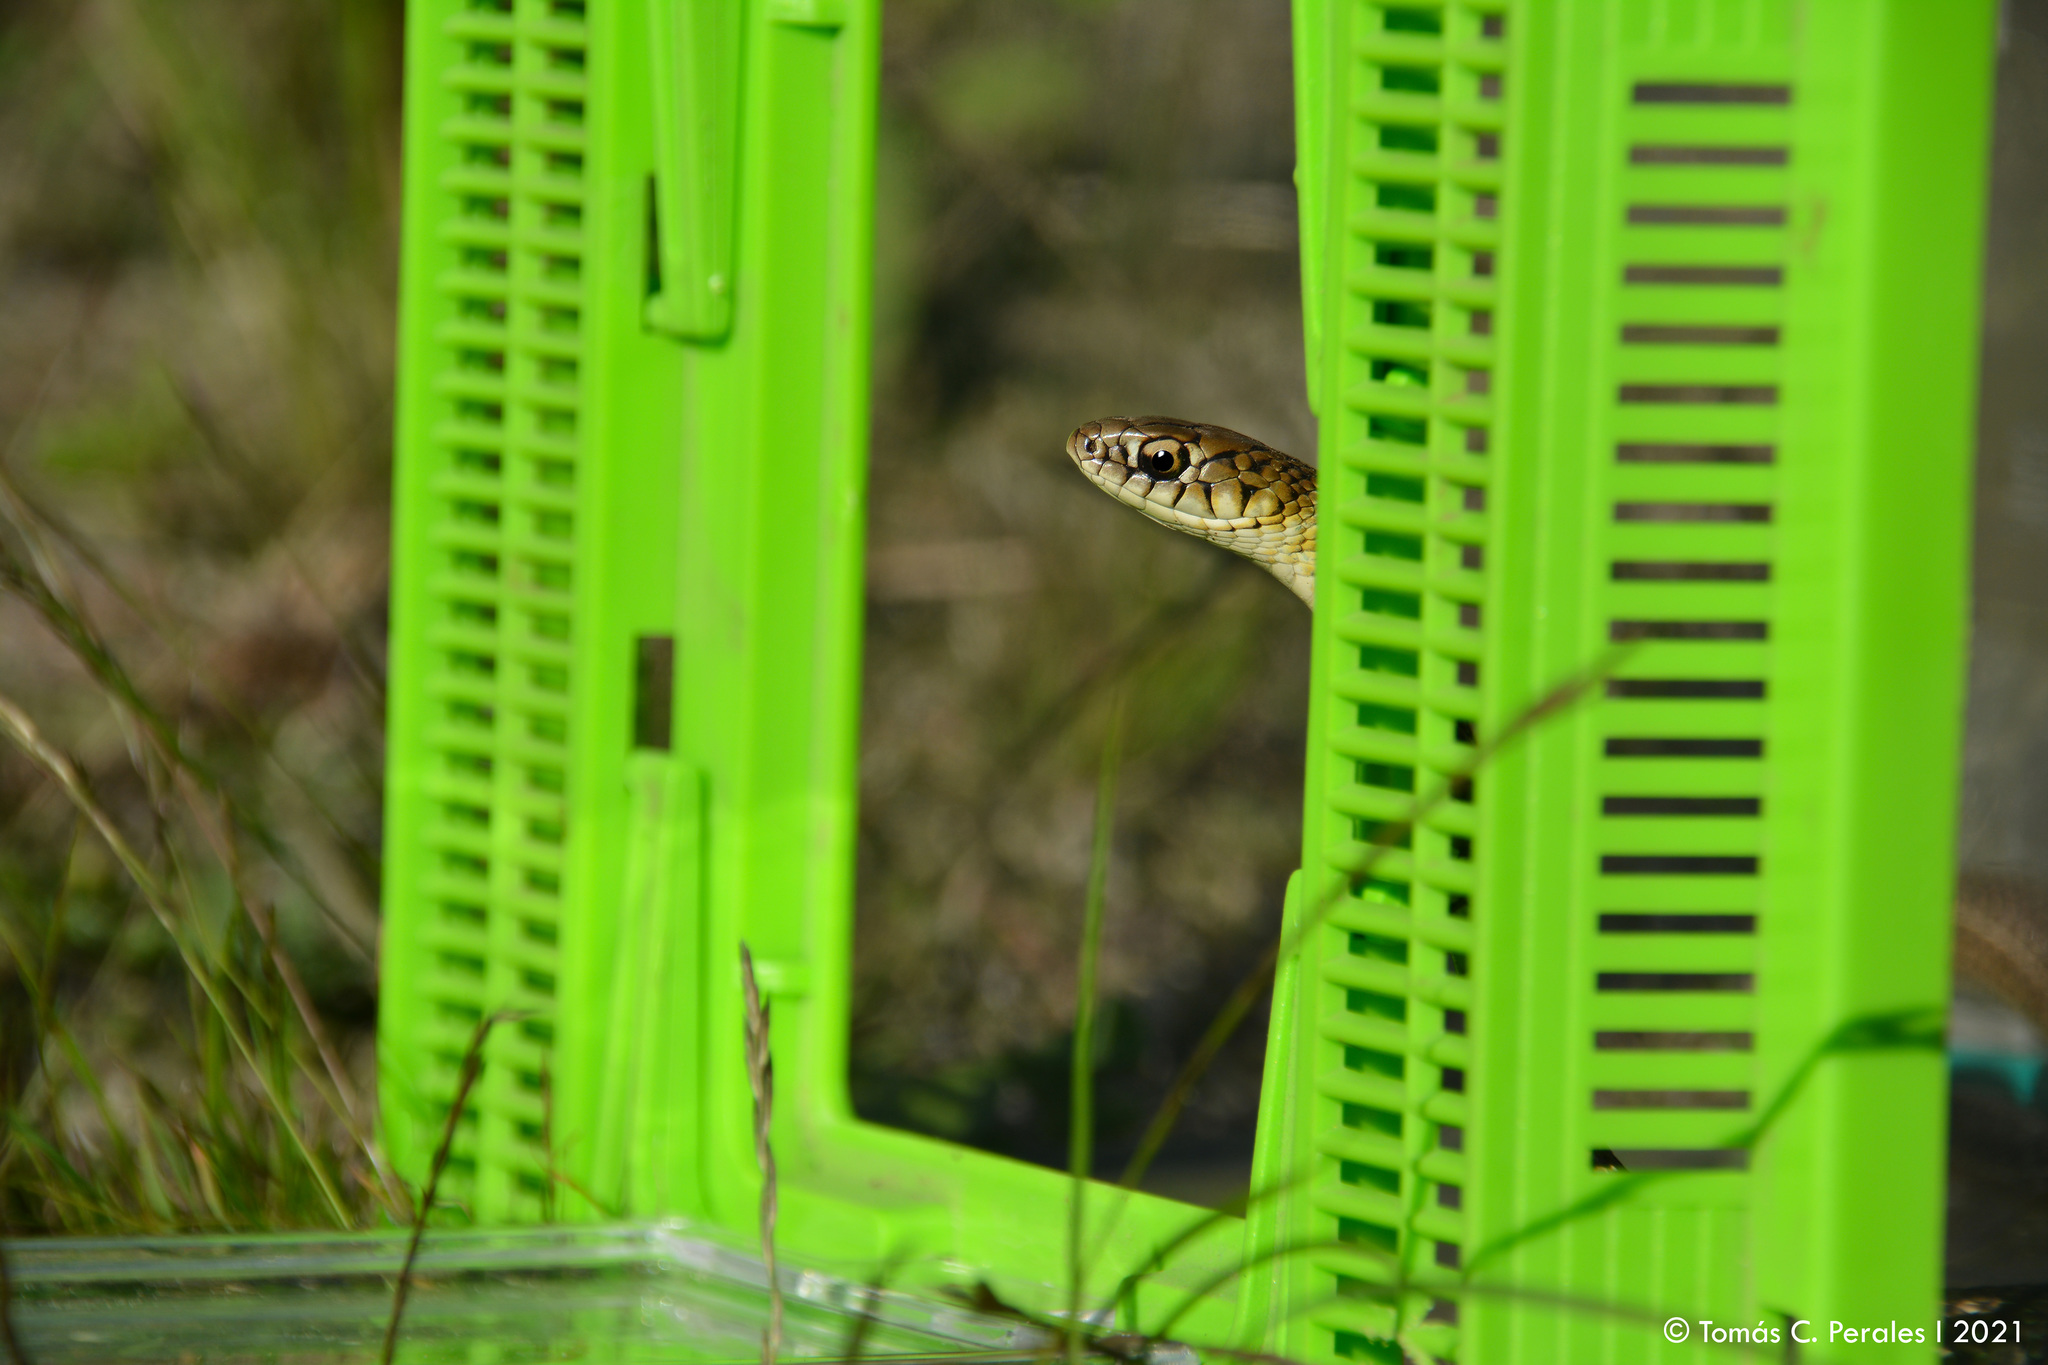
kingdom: Animalia
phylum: Chordata
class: Squamata
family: Colubridae
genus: Philodryas
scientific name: Philodryas patagoniensis
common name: Patagonia green racer
